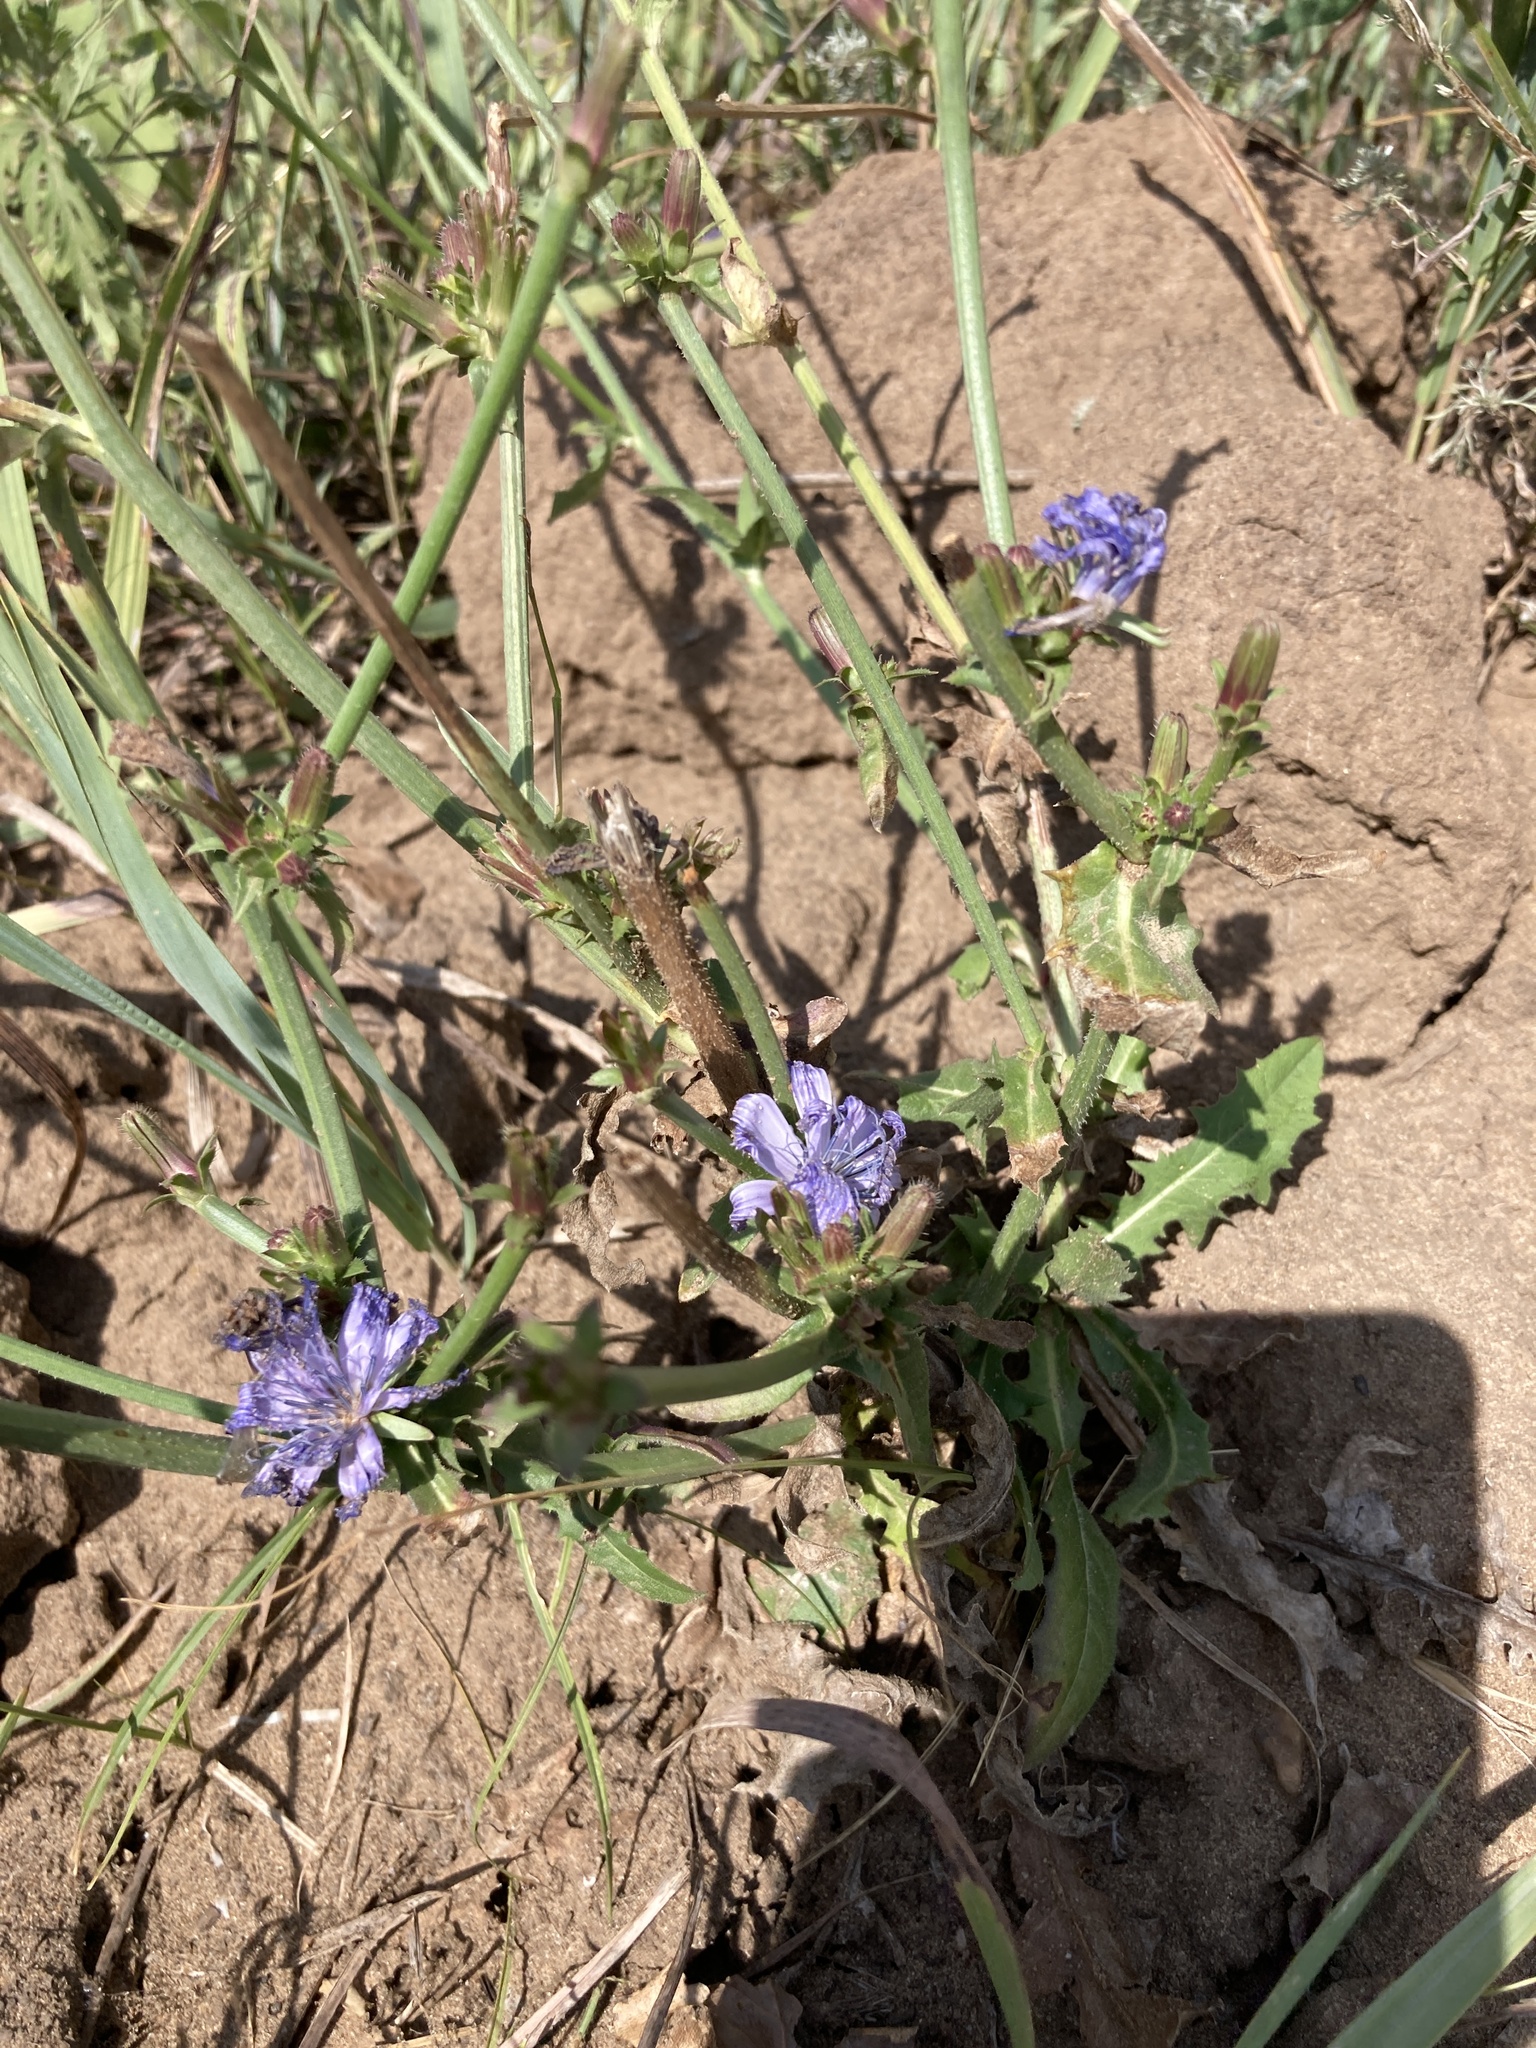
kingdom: Plantae
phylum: Tracheophyta
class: Magnoliopsida
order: Asterales
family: Asteraceae
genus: Cichorium
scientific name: Cichorium intybus
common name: Chicory
